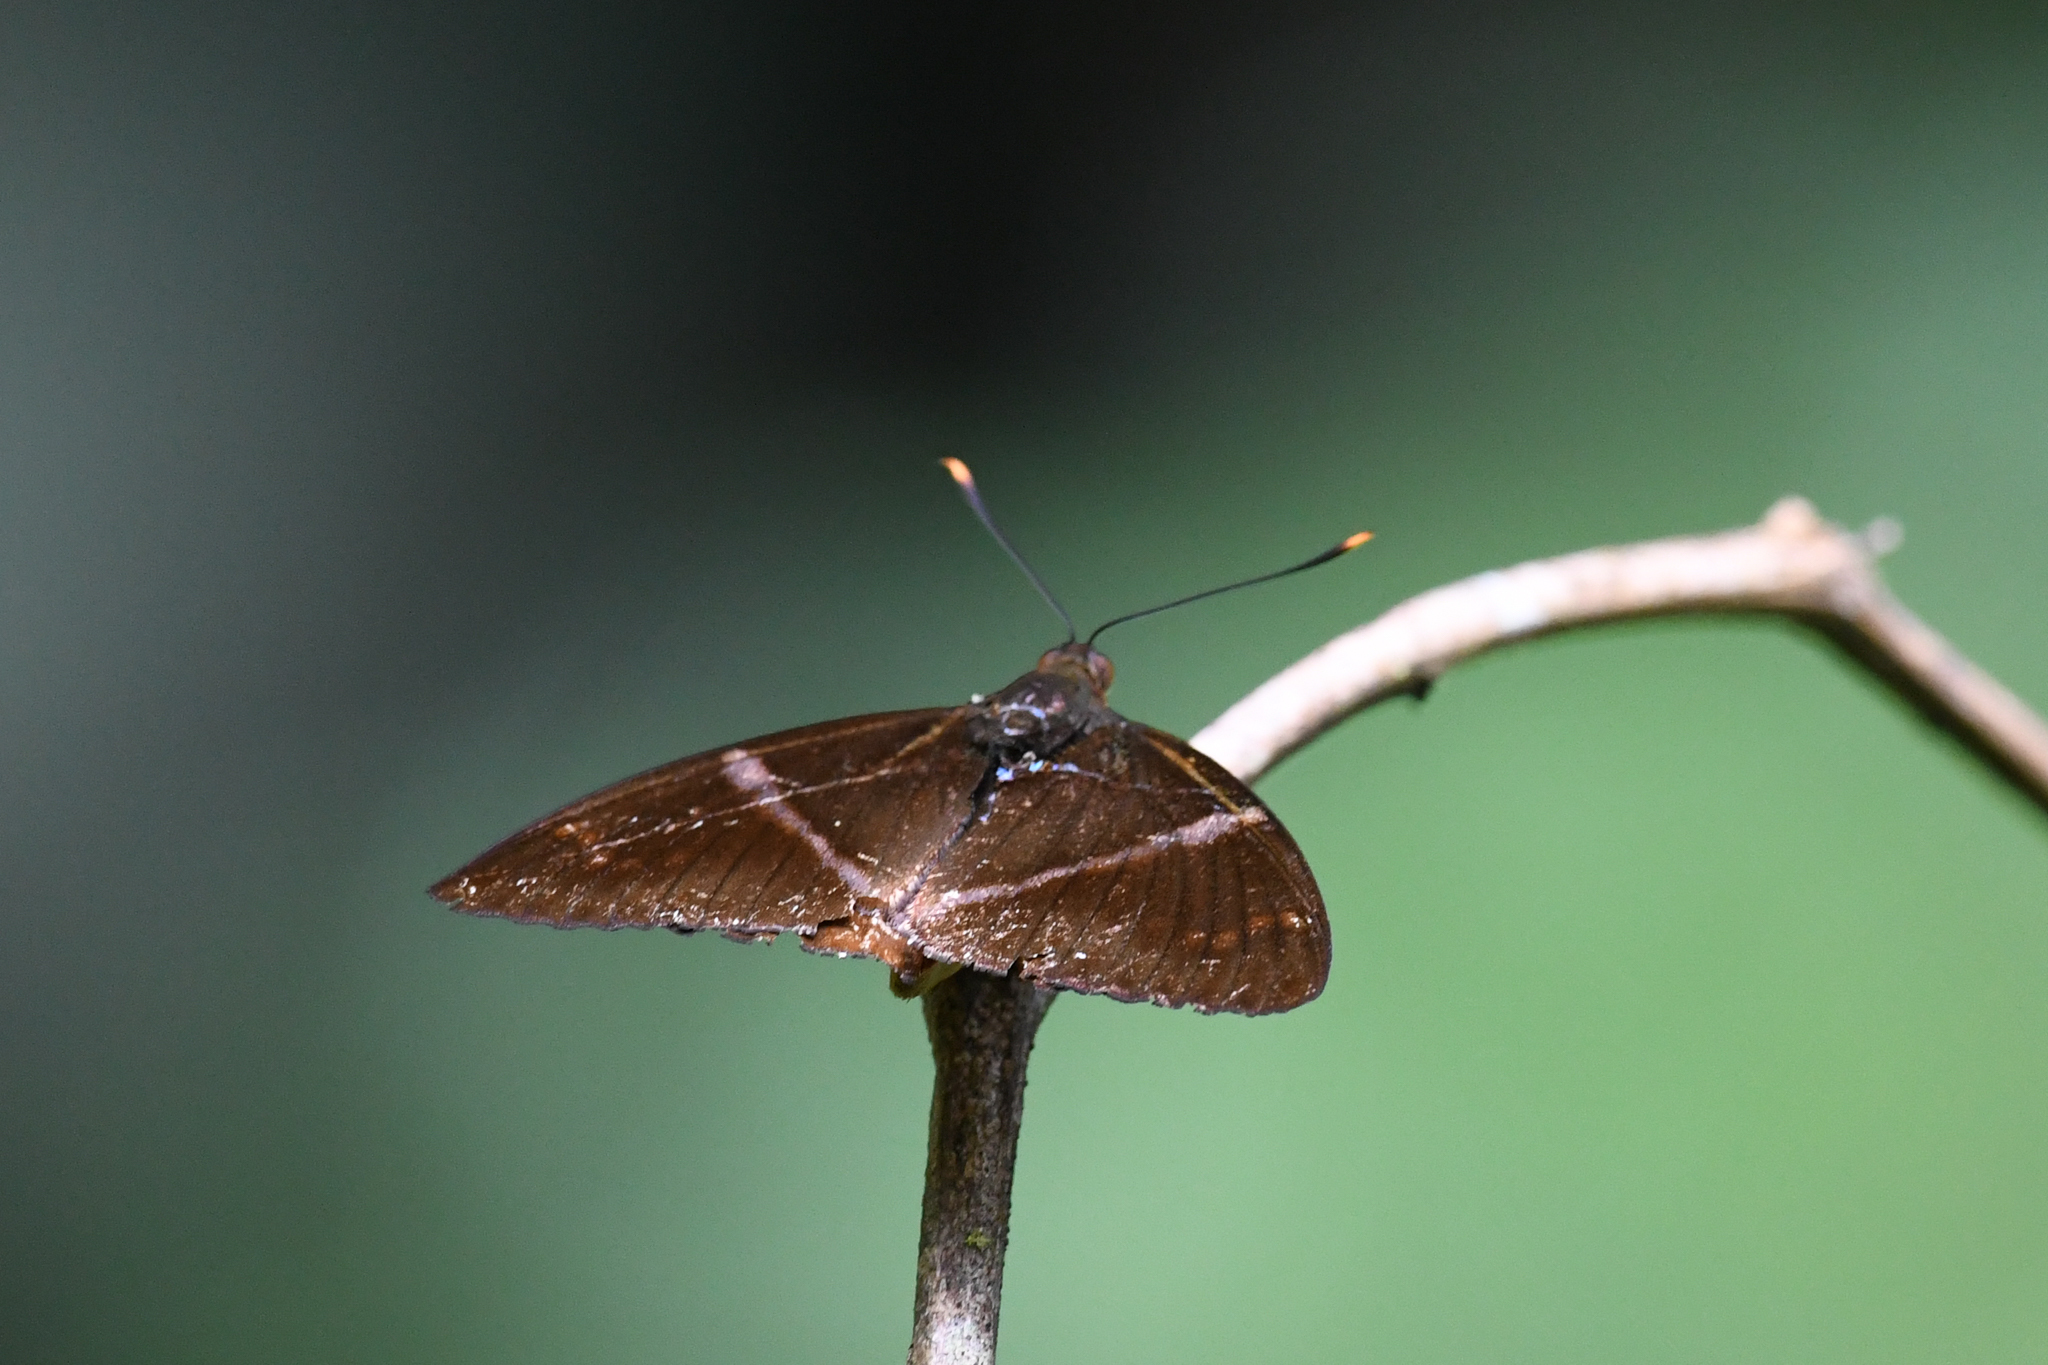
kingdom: Animalia
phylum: Arthropoda
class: Insecta
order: Lepidoptera
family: Castniidae
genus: Castniomera
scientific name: Castniomera atymnius
